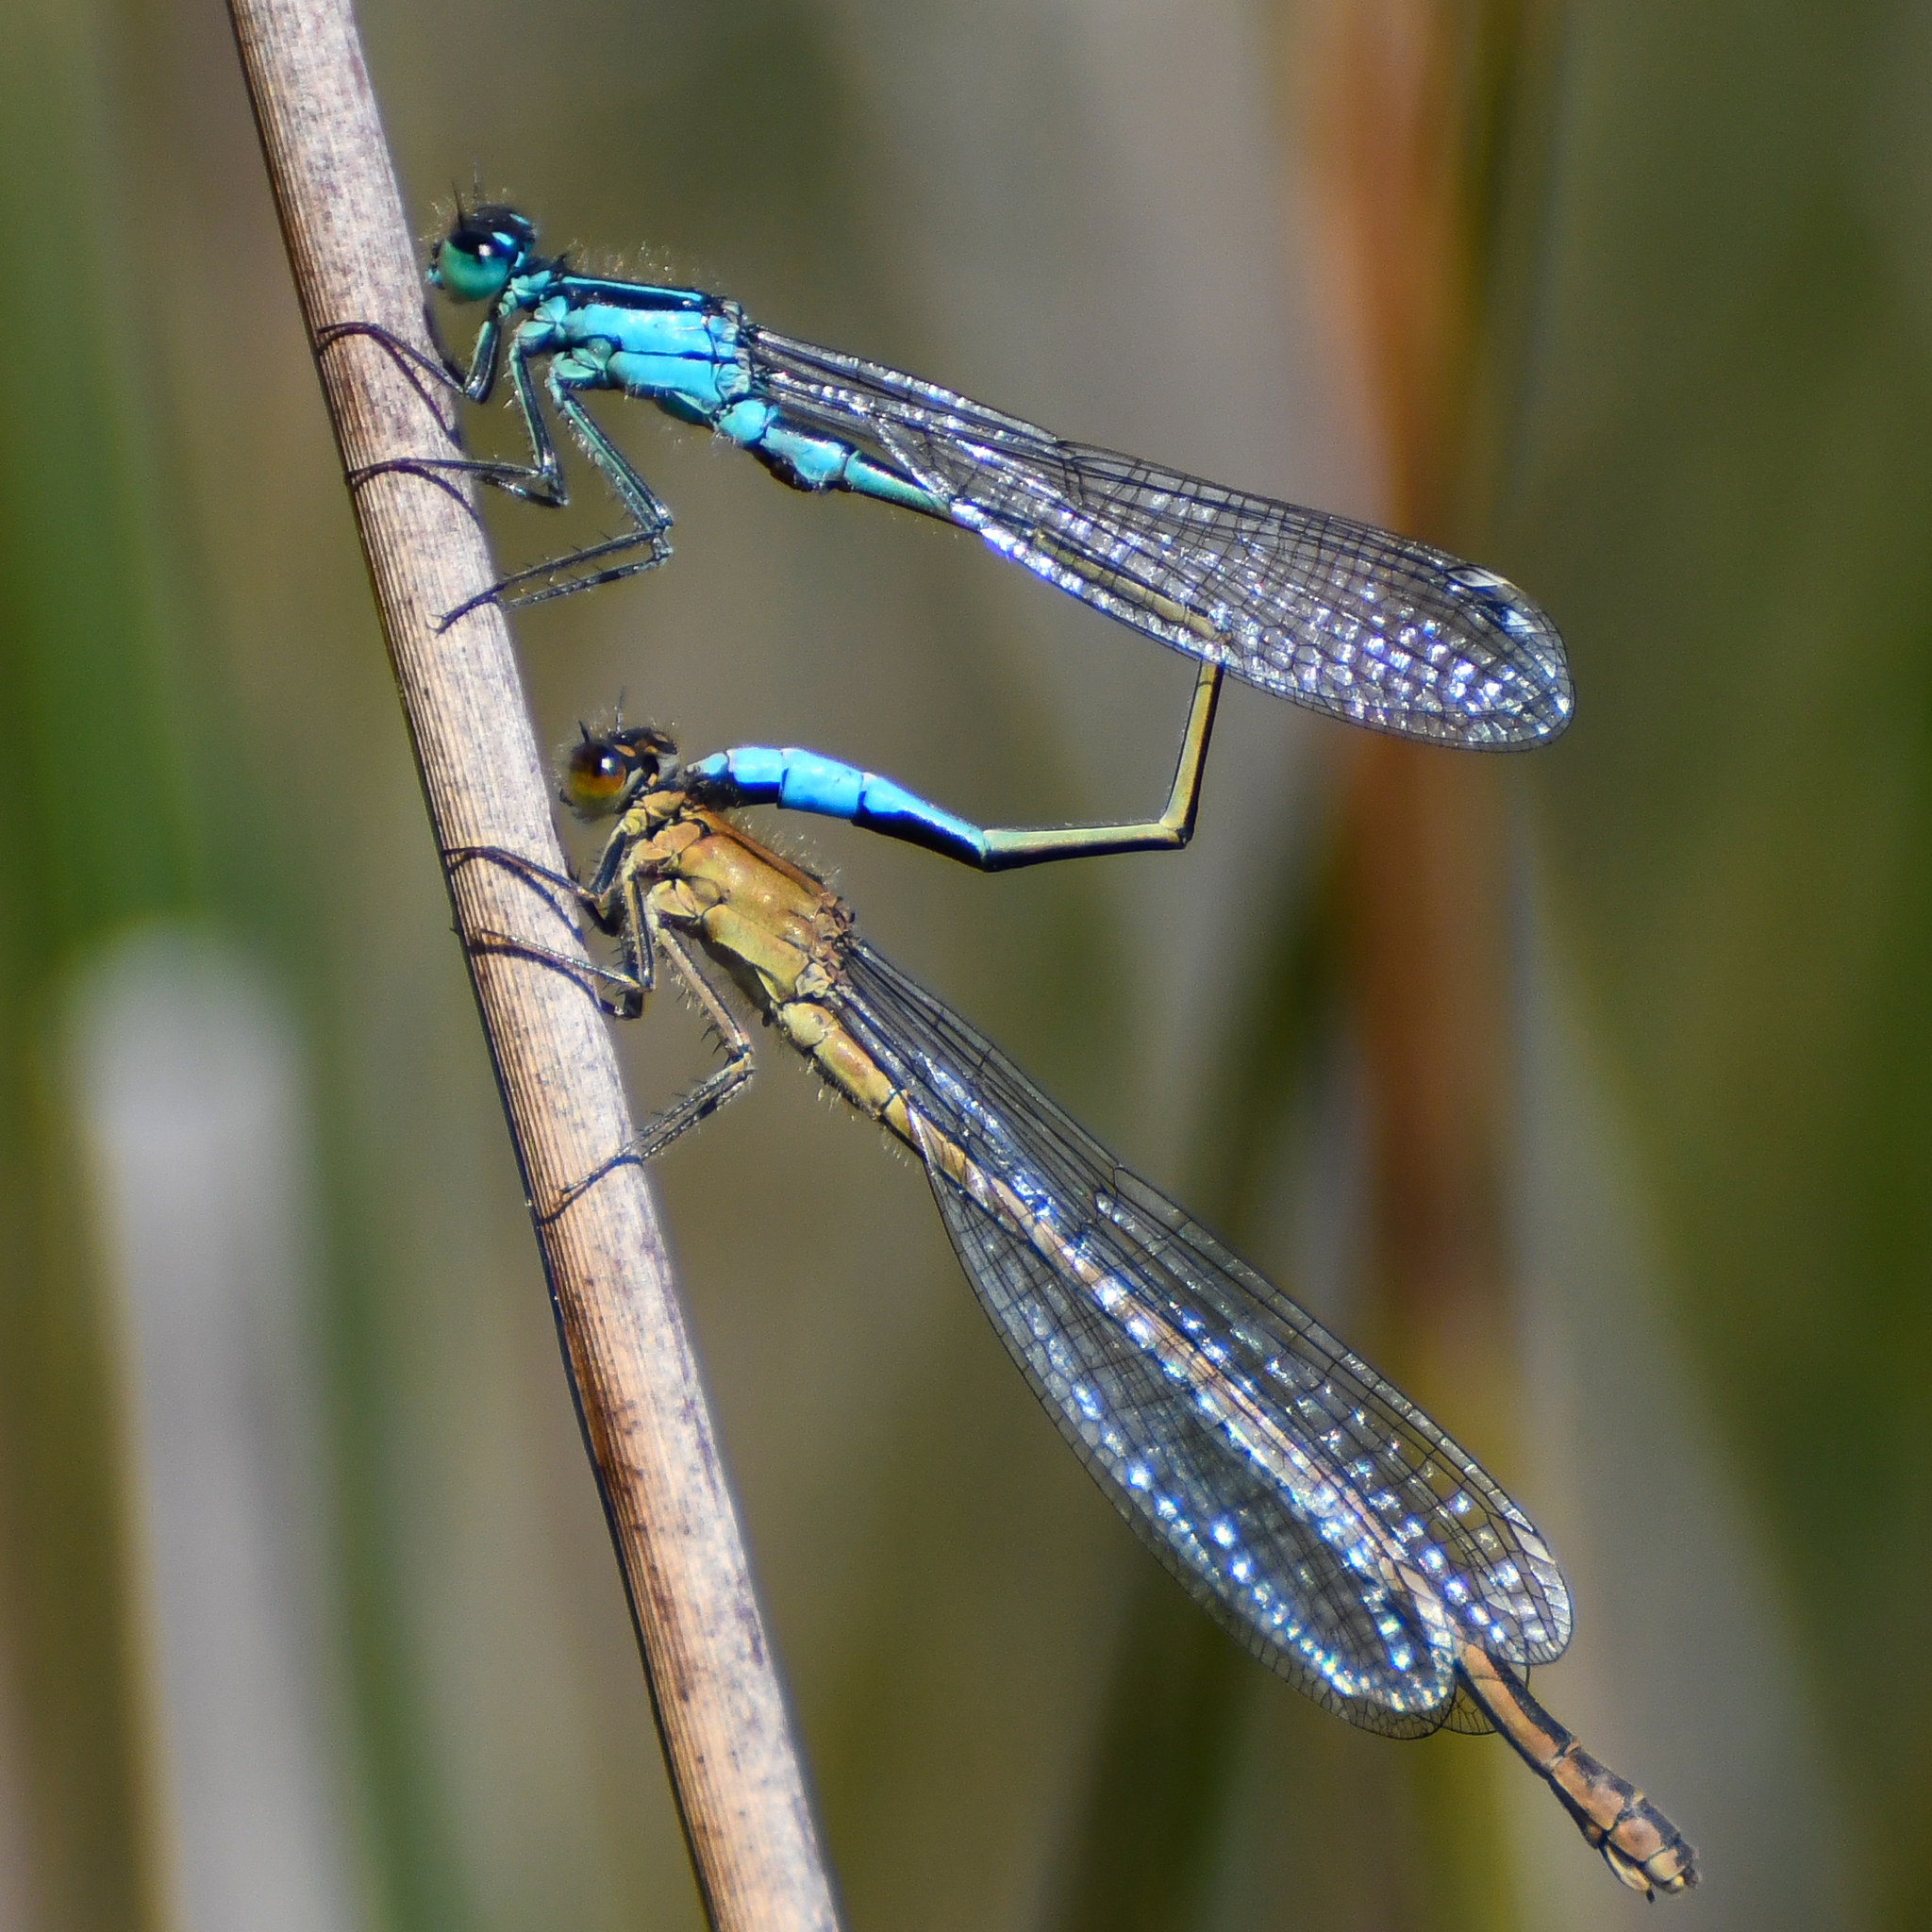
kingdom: Animalia
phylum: Arthropoda
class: Insecta
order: Odonata
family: Coenagrionidae
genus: Ischnura
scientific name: Ischnura elegans
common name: Blue-tailed damselfly
